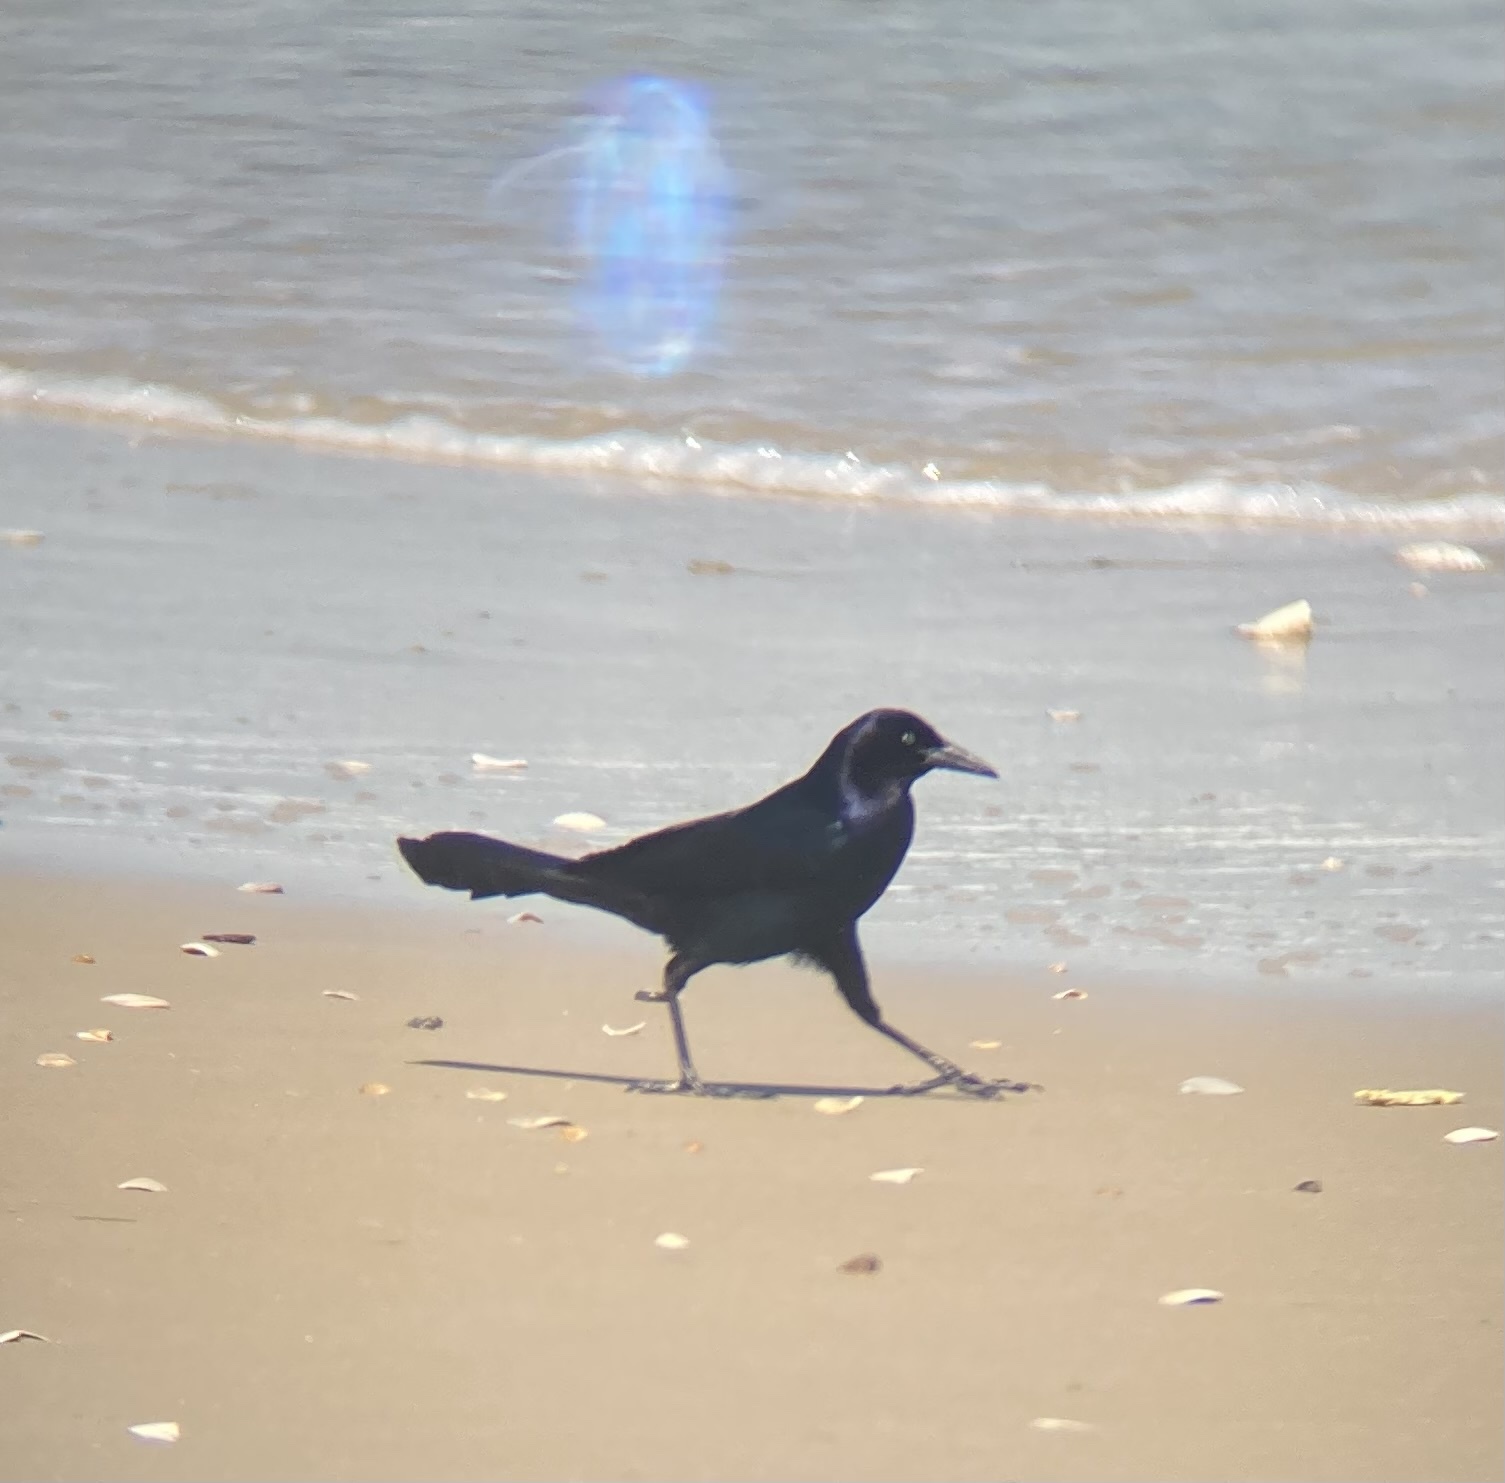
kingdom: Animalia
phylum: Chordata
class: Aves
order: Passeriformes
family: Icteridae
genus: Quiscalus
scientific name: Quiscalus major
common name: Boat-tailed grackle
